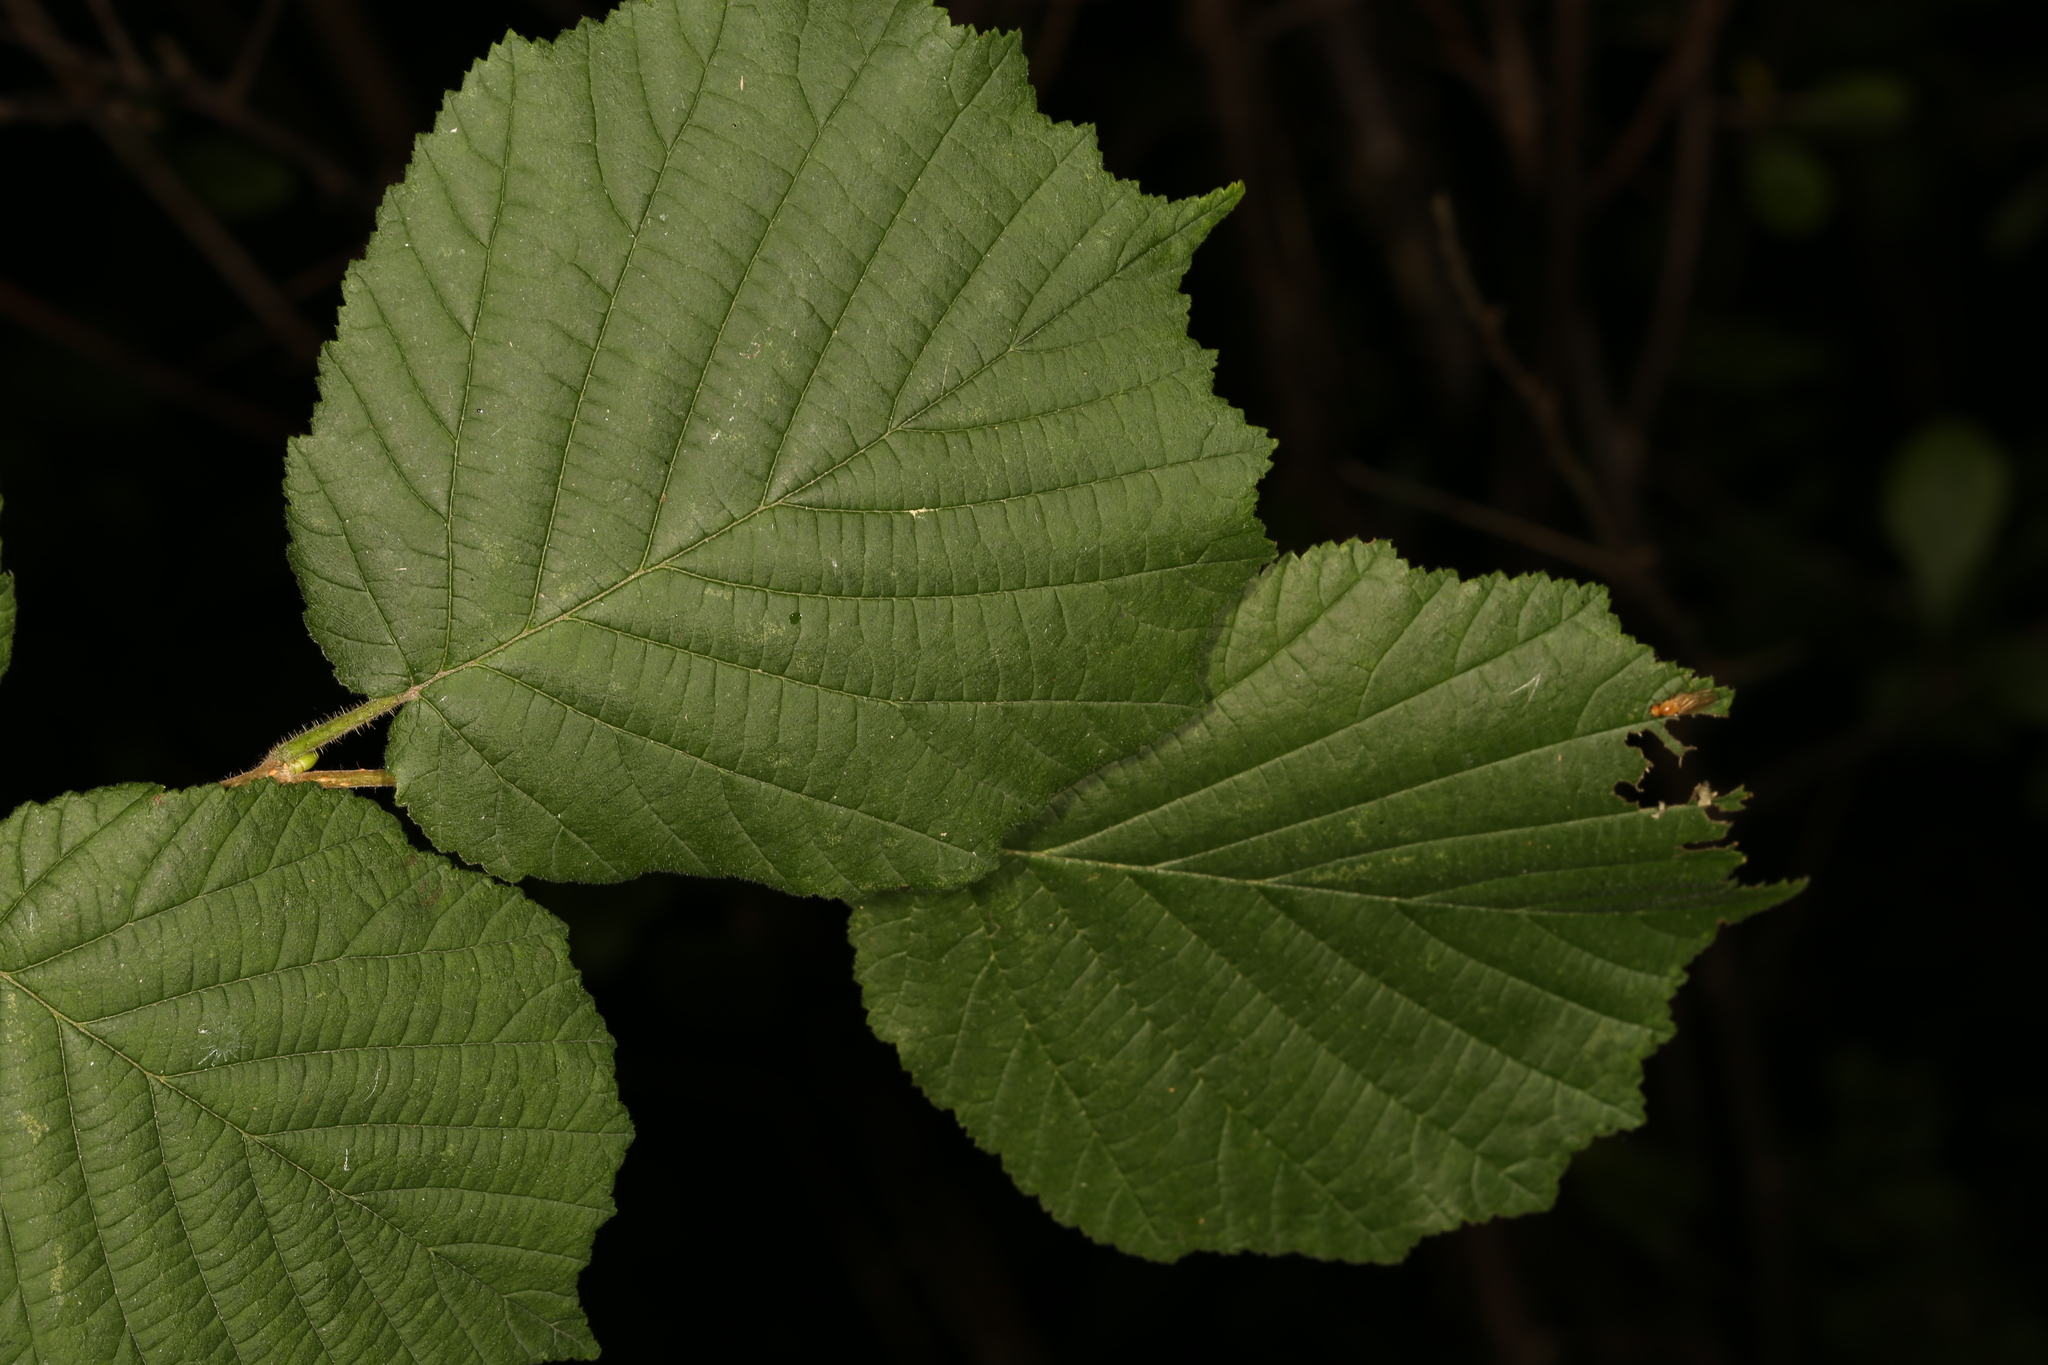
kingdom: Plantae
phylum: Tracheophyta
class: Magnoliopsida
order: Fagales
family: Betulaceae
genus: Corylus
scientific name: Corylus avellana
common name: European hazel
